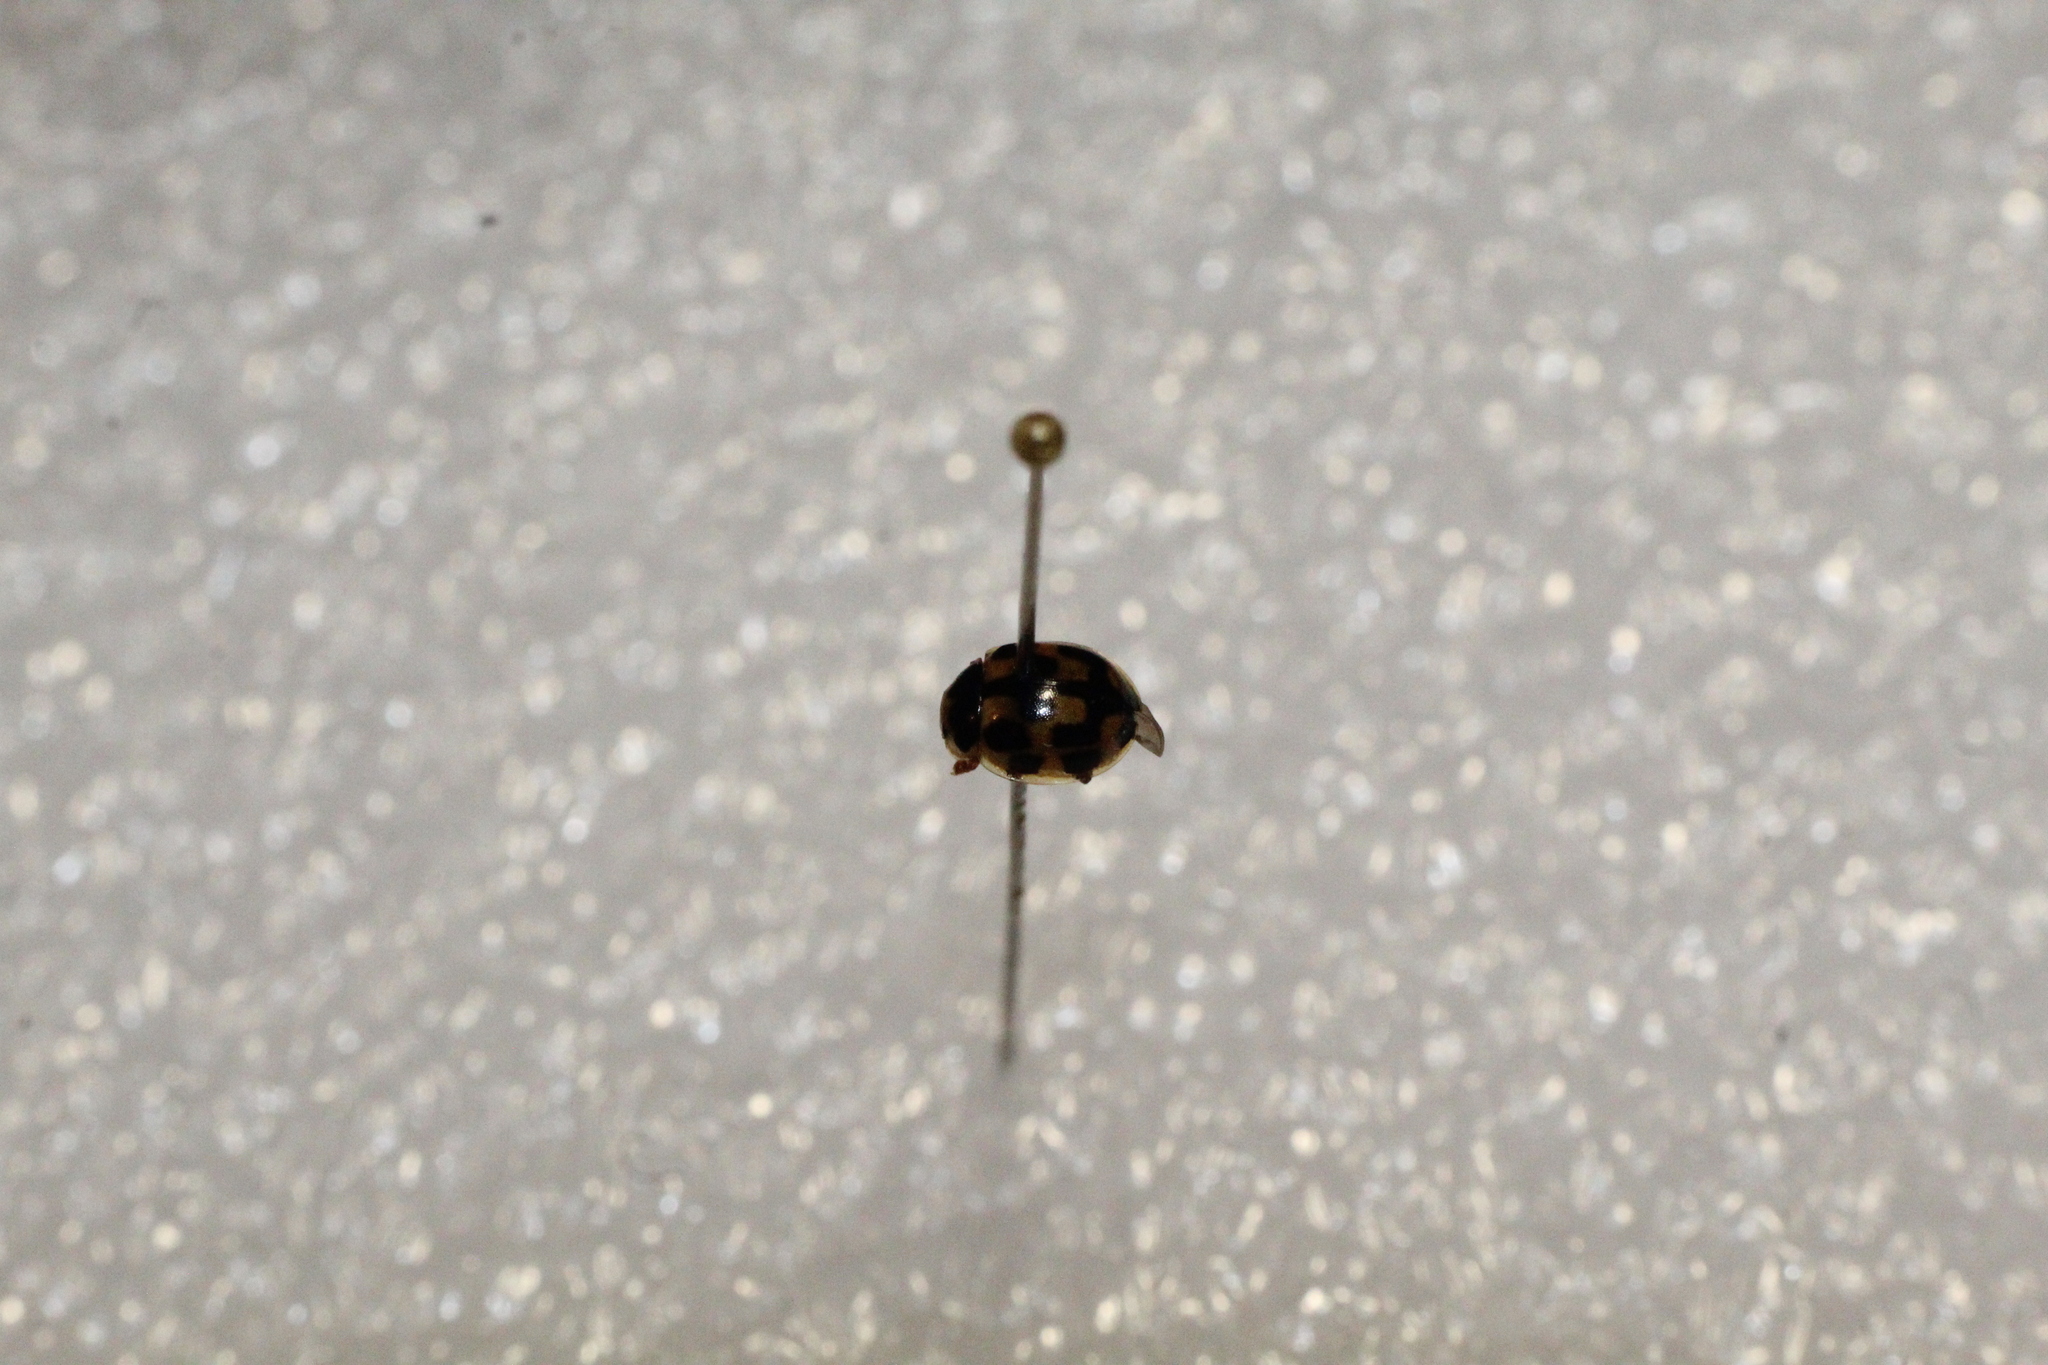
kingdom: Animalia
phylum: Arthropoda
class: Insecta
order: Coleoptera
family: Coccinellidae
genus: Propylaea
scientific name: Propylaea quatuordecimpunctata
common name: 14-spotted ladybird beetle
